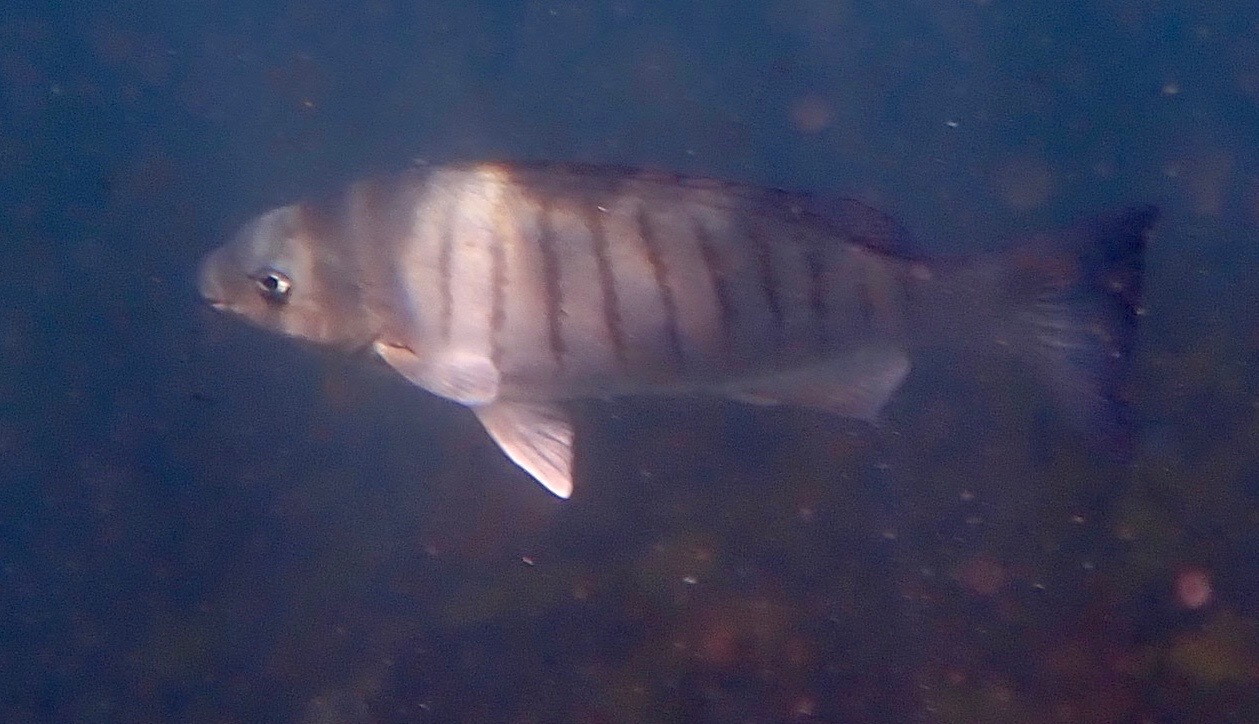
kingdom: Animalia
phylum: Chordata
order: Perciformes
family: Kyphosidae
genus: Girella
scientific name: Girella tricuspidata
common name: Parore
